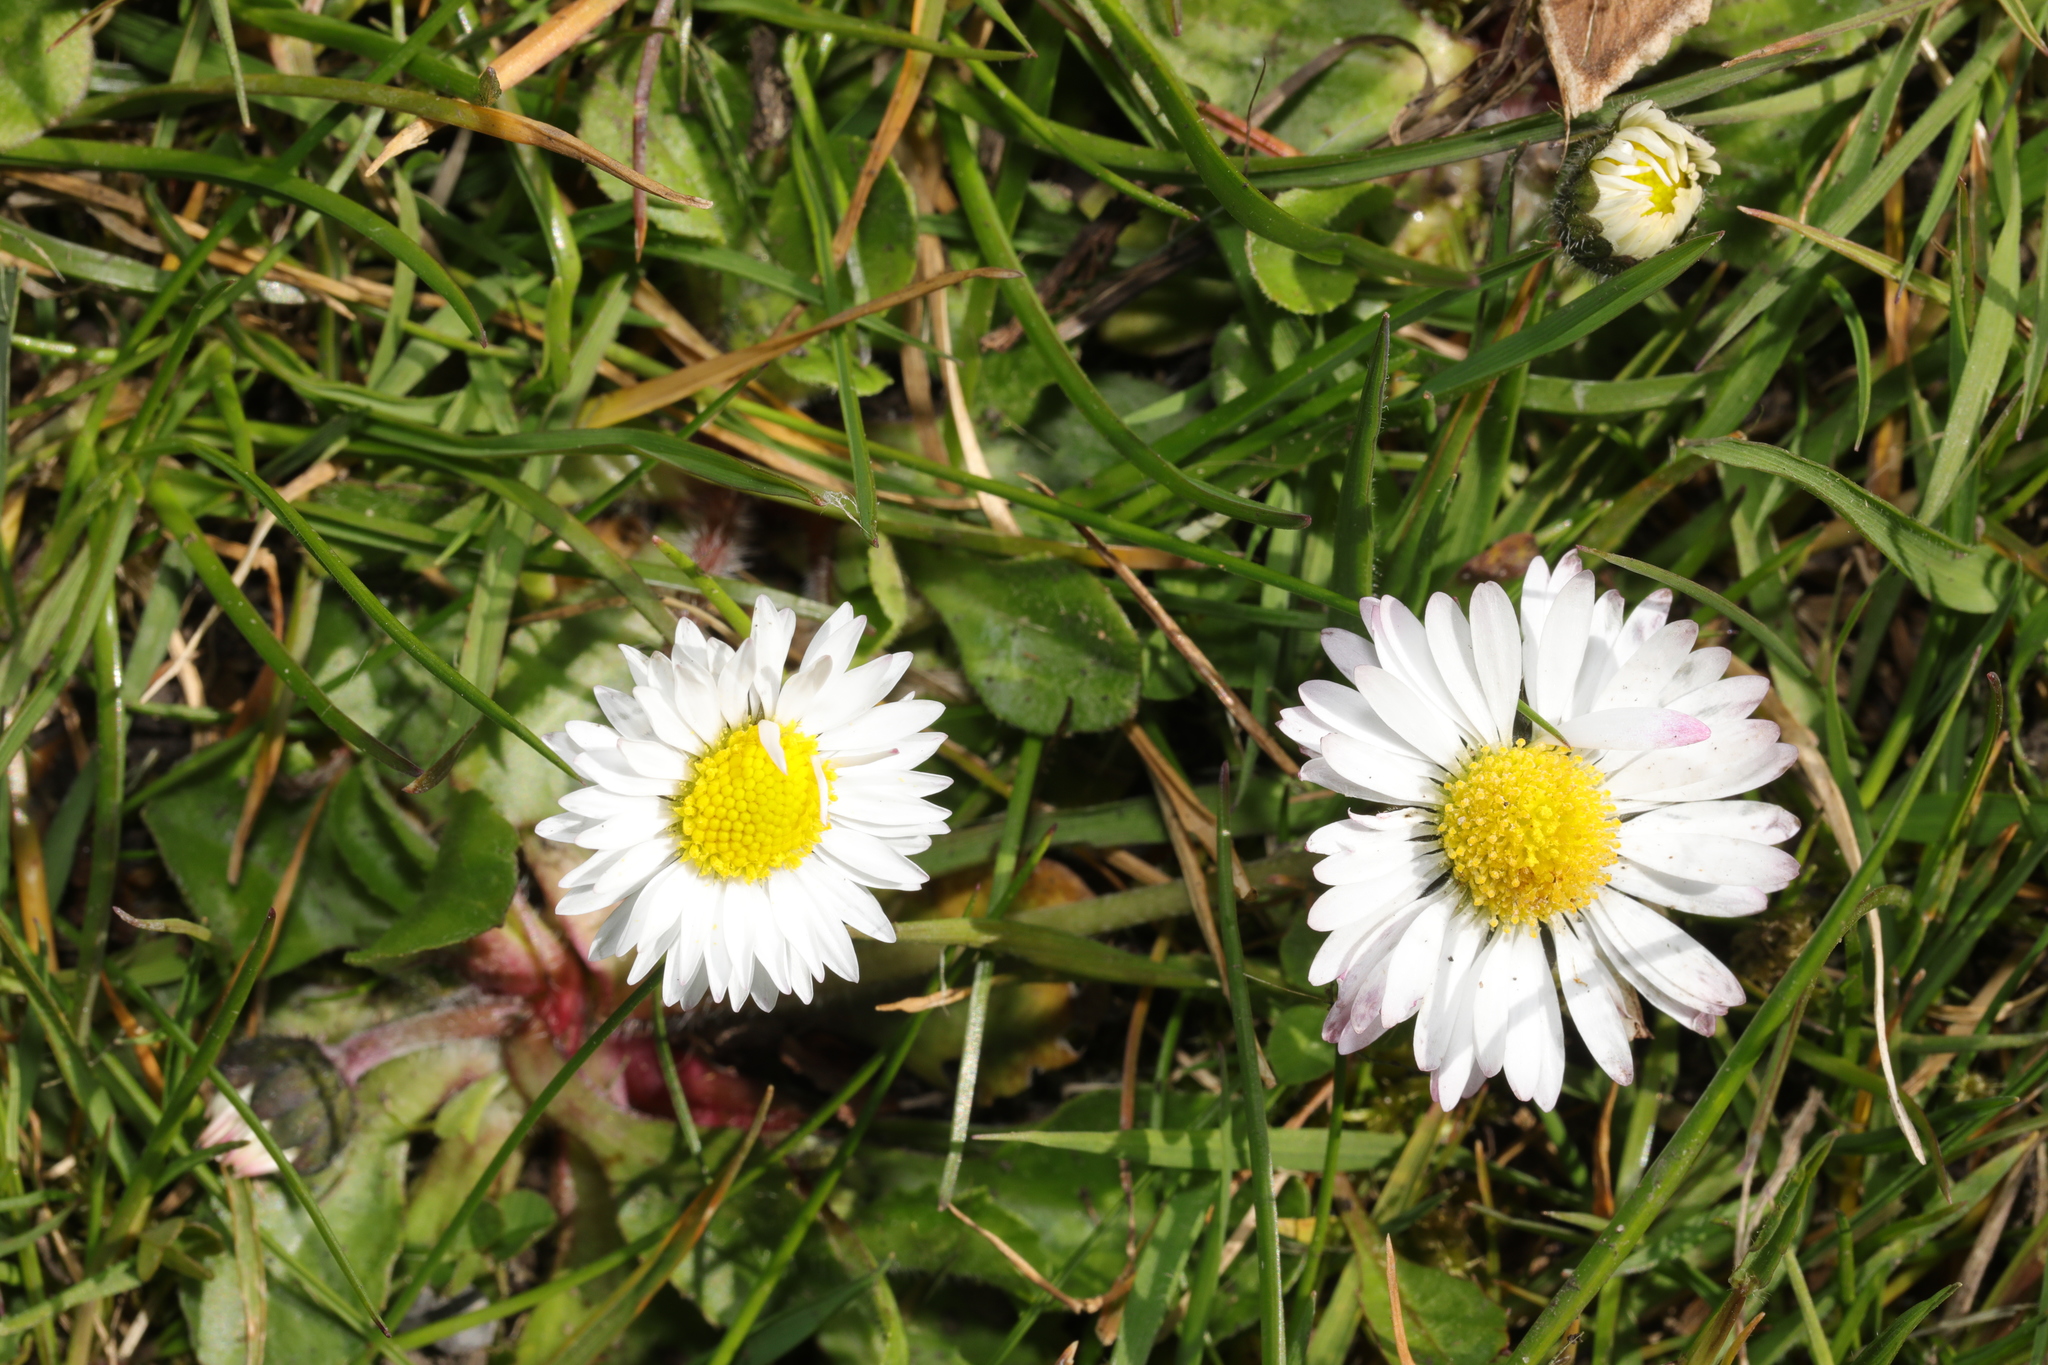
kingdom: Plantae
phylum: Tracheophyta
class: Magnoliopsida
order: Asterales
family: Asteraceae
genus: Bellis
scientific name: Bellis perennis
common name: Lawndaisy
